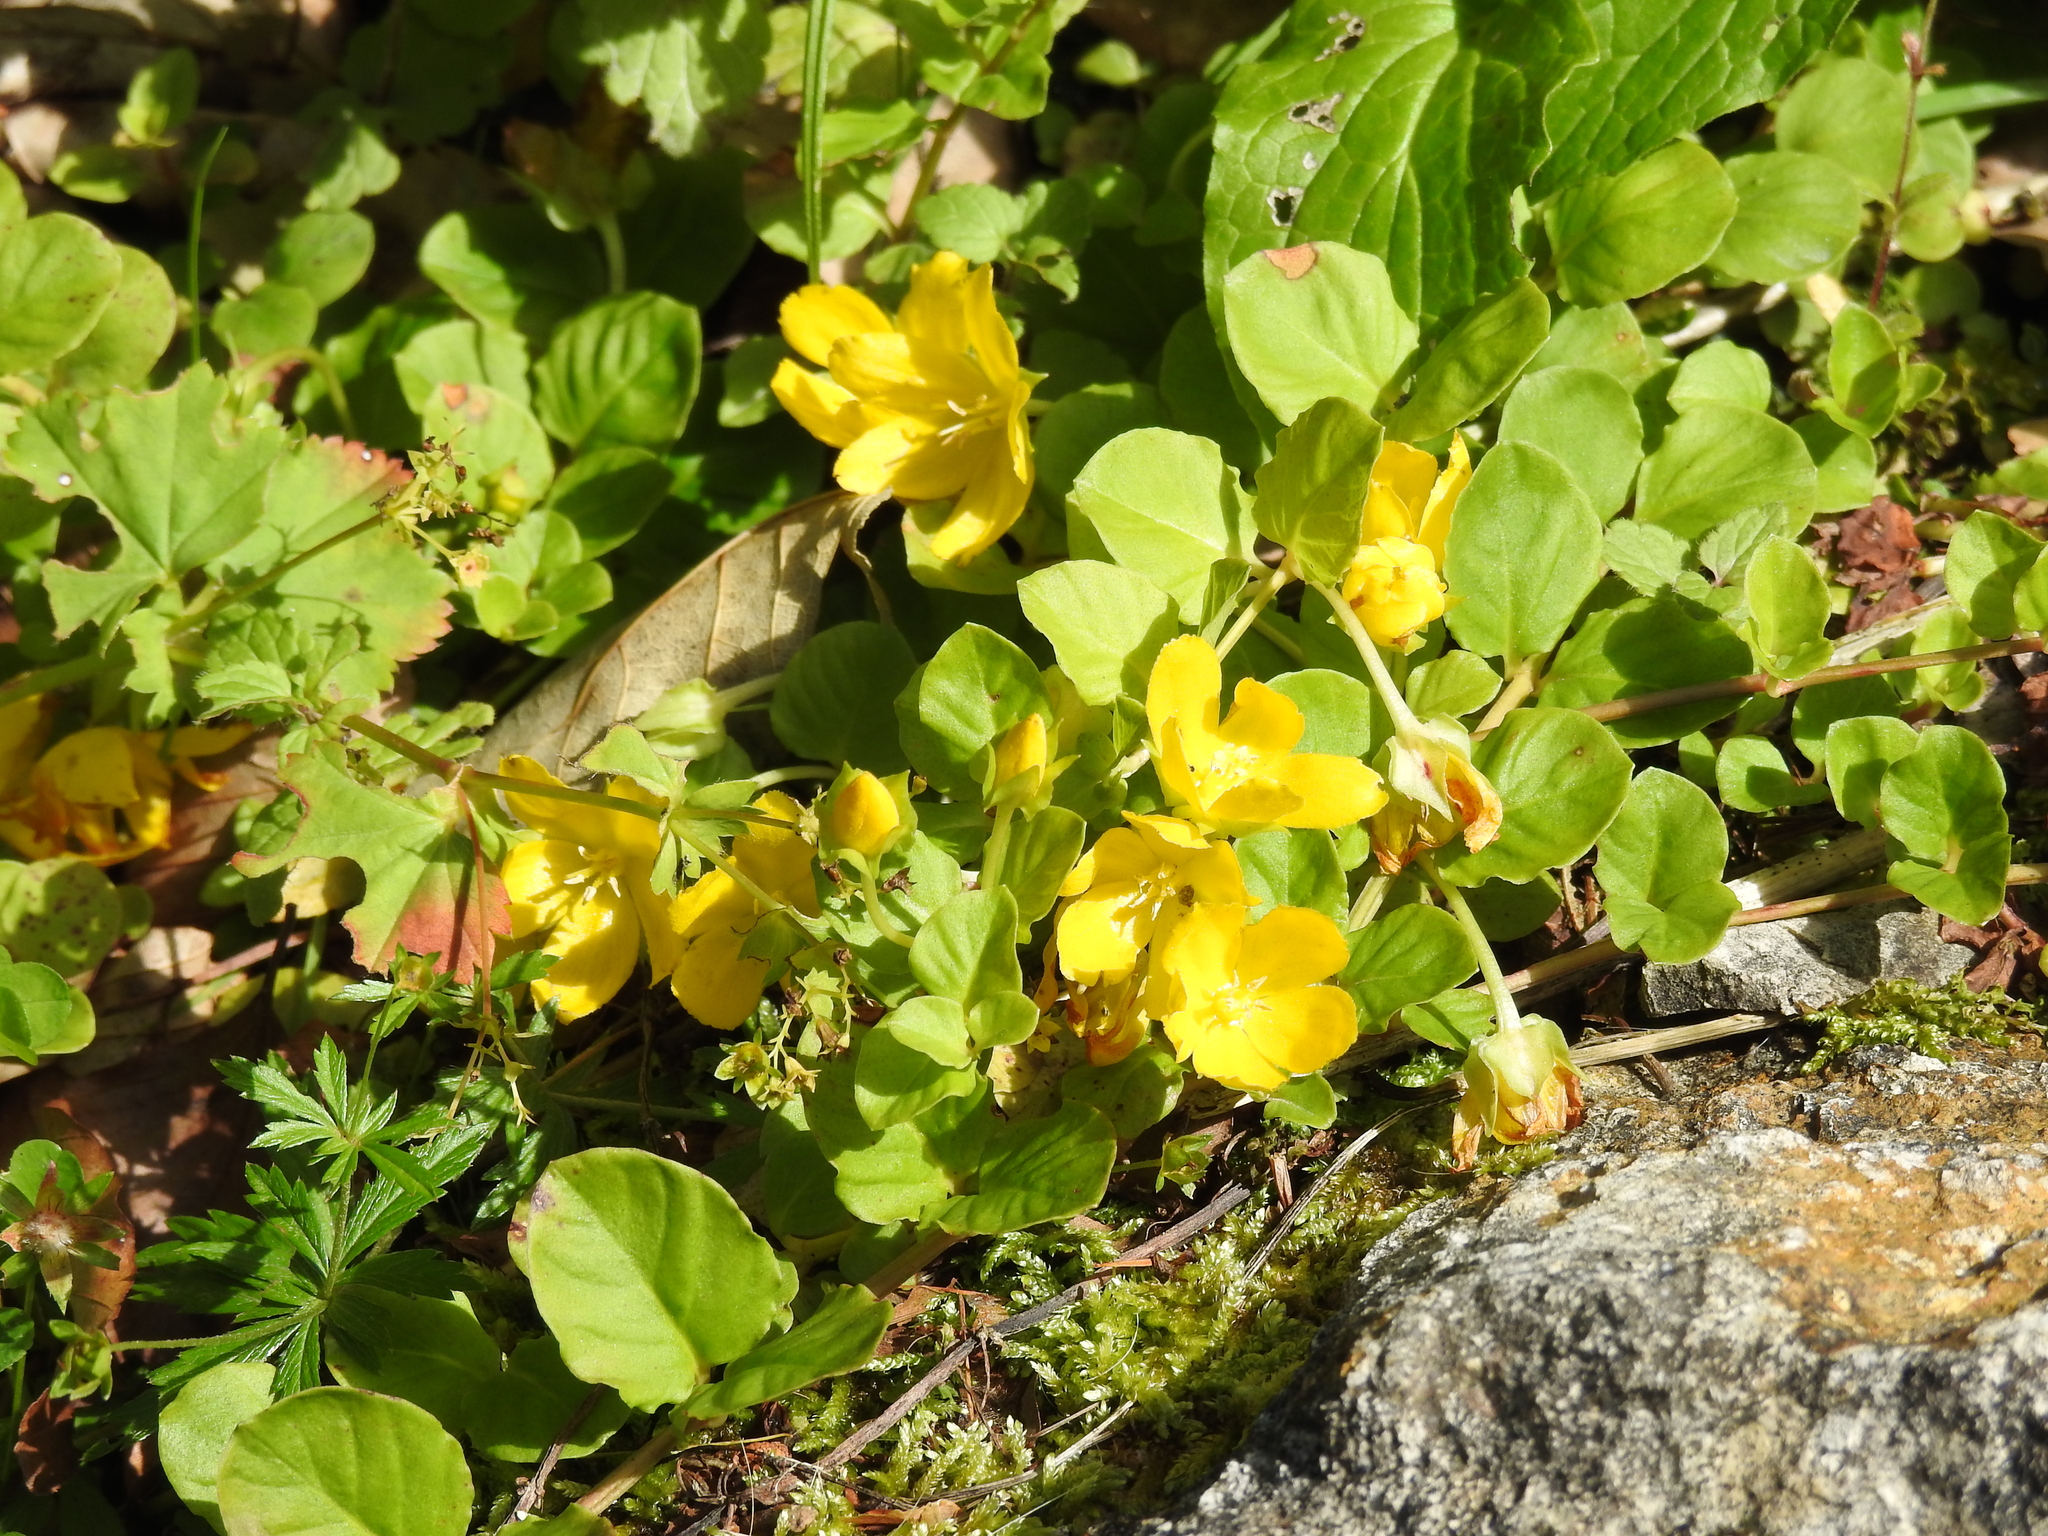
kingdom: Plantae
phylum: Tracheophyta
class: Magnoliopsida
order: Ericales
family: Primulaceae
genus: Lysimachia
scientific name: Lysimachia nummularia
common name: Moneywort
